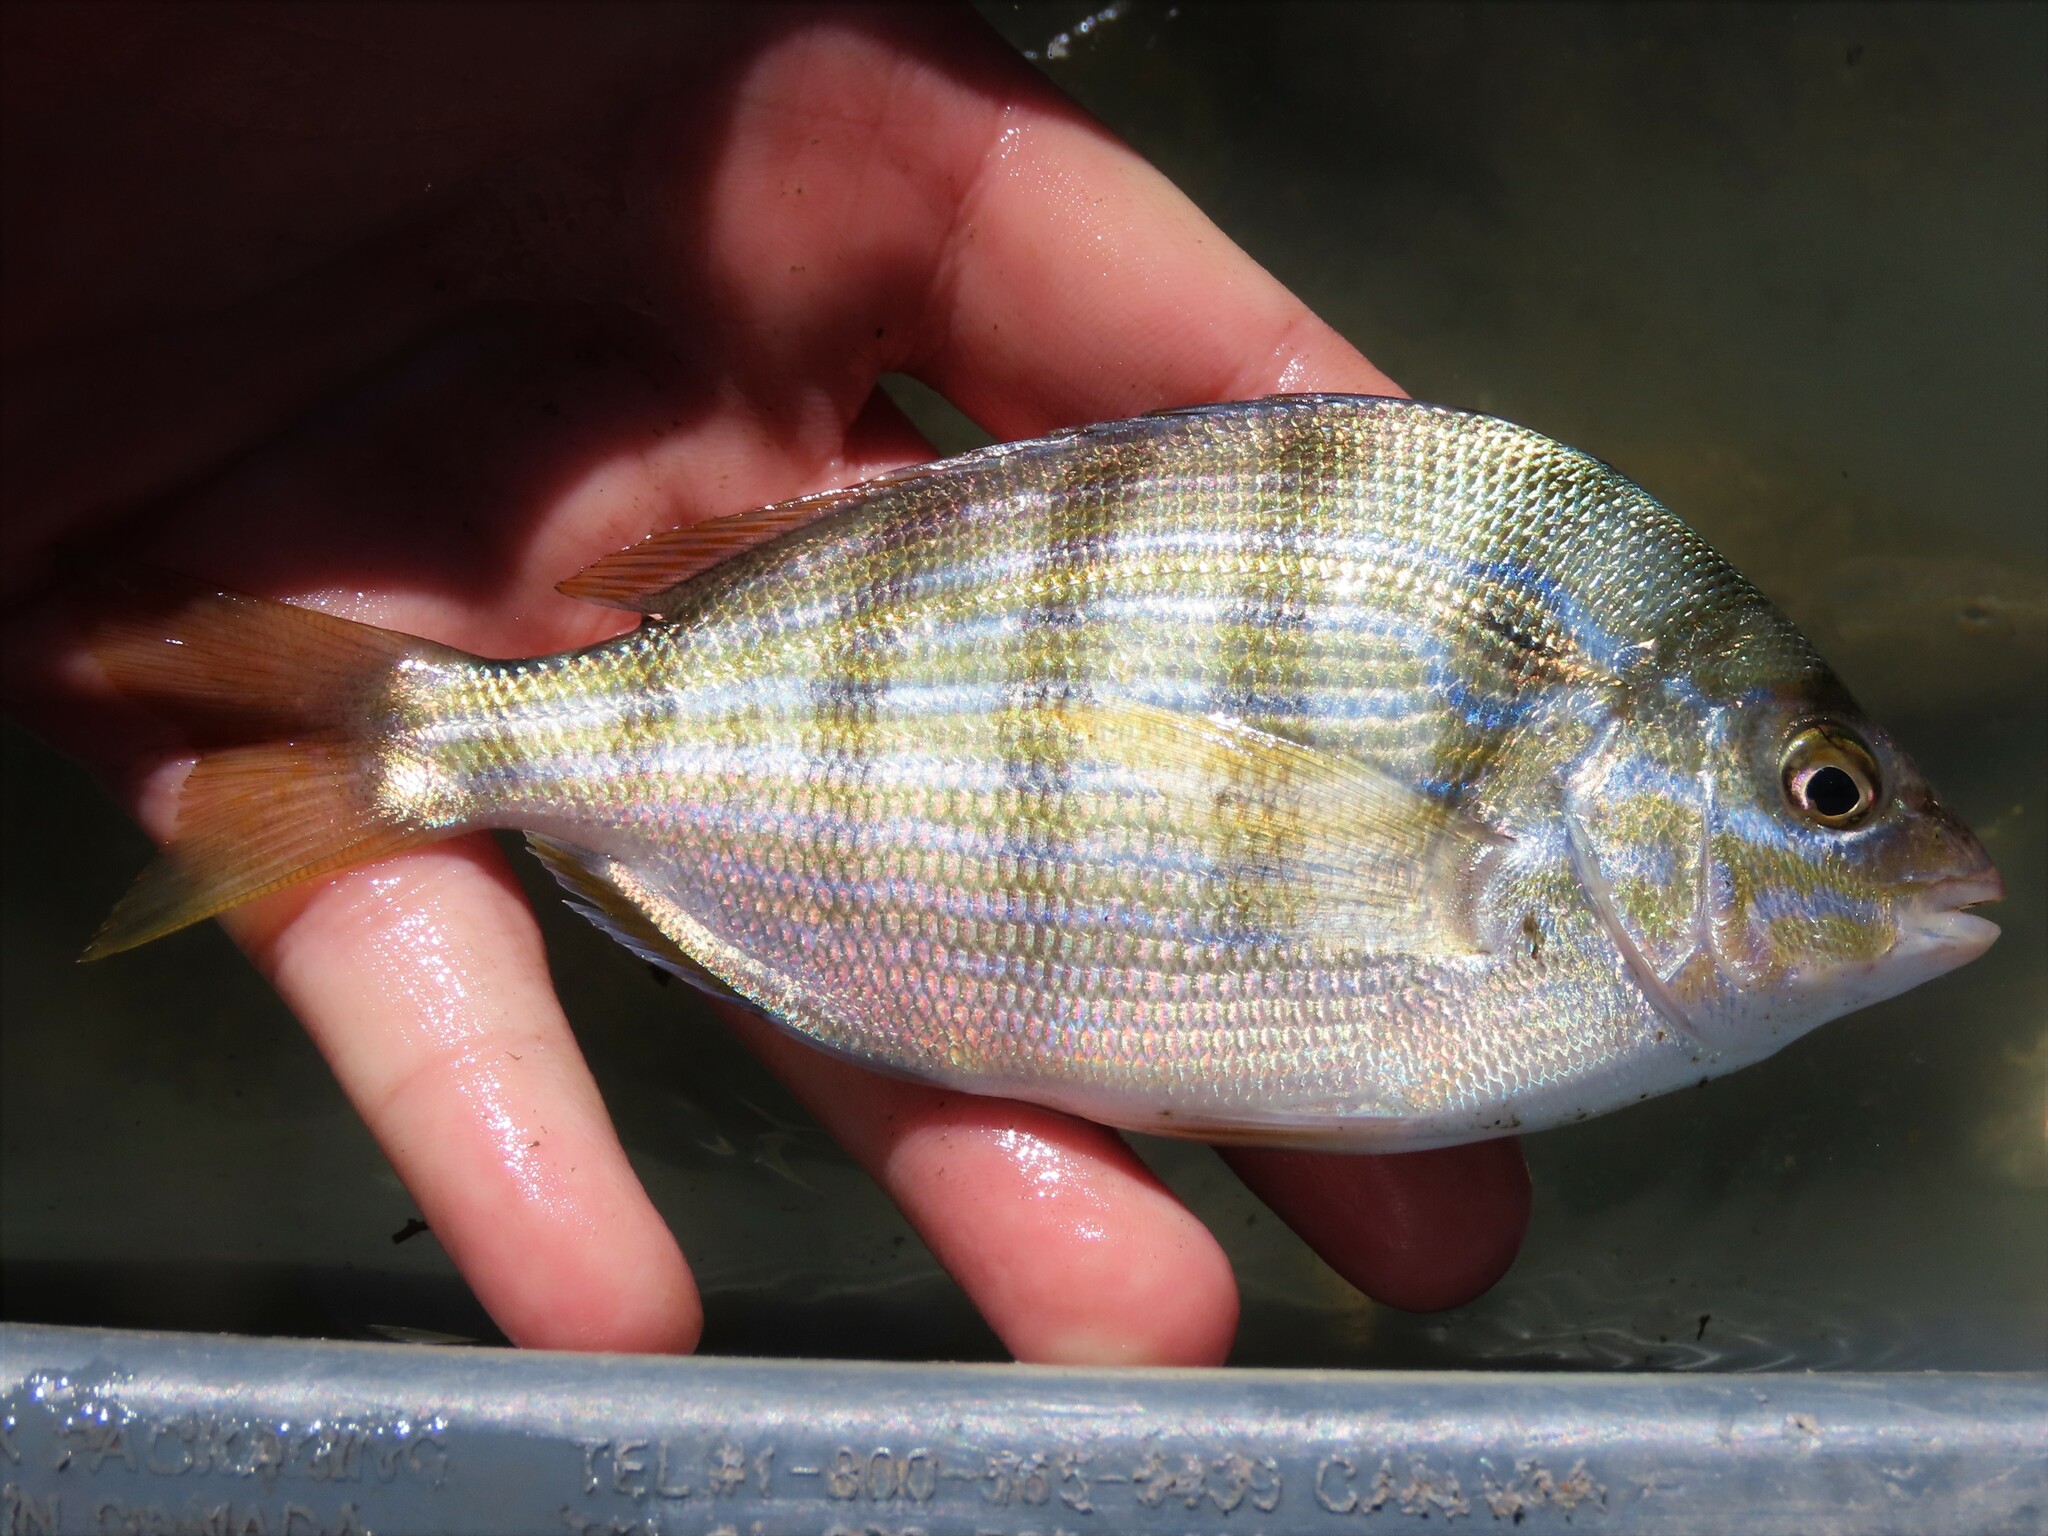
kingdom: Animalia
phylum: Chordata
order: Perciformes
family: Sparidae
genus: Lagodon
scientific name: Lagodon rhomboides
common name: Pinfish
